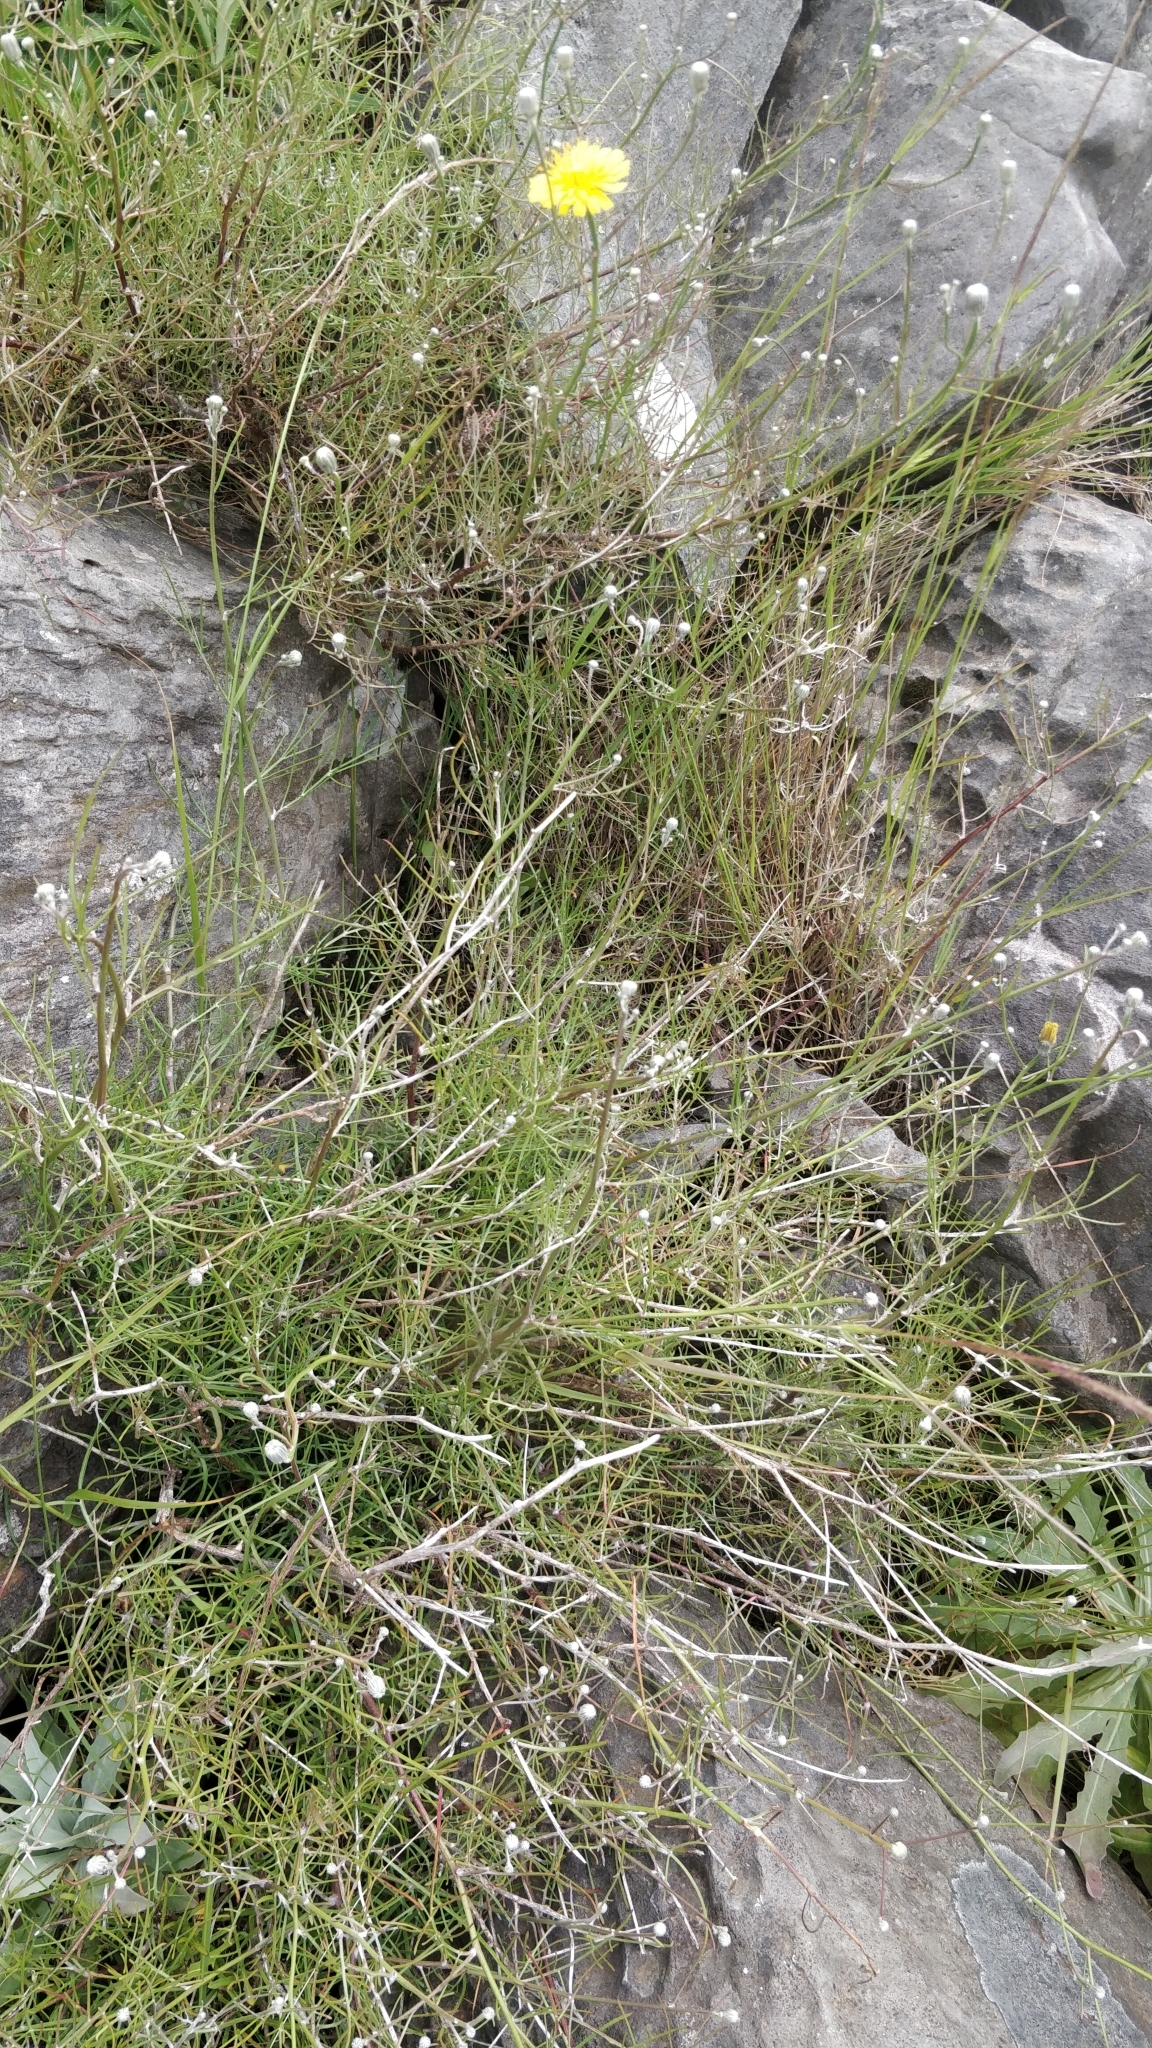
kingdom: Plantae
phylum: Tracheophyta
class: Magnoliopsida
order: Asterales
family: Asteraceae
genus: Tolpis
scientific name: Tolpis succulenta
